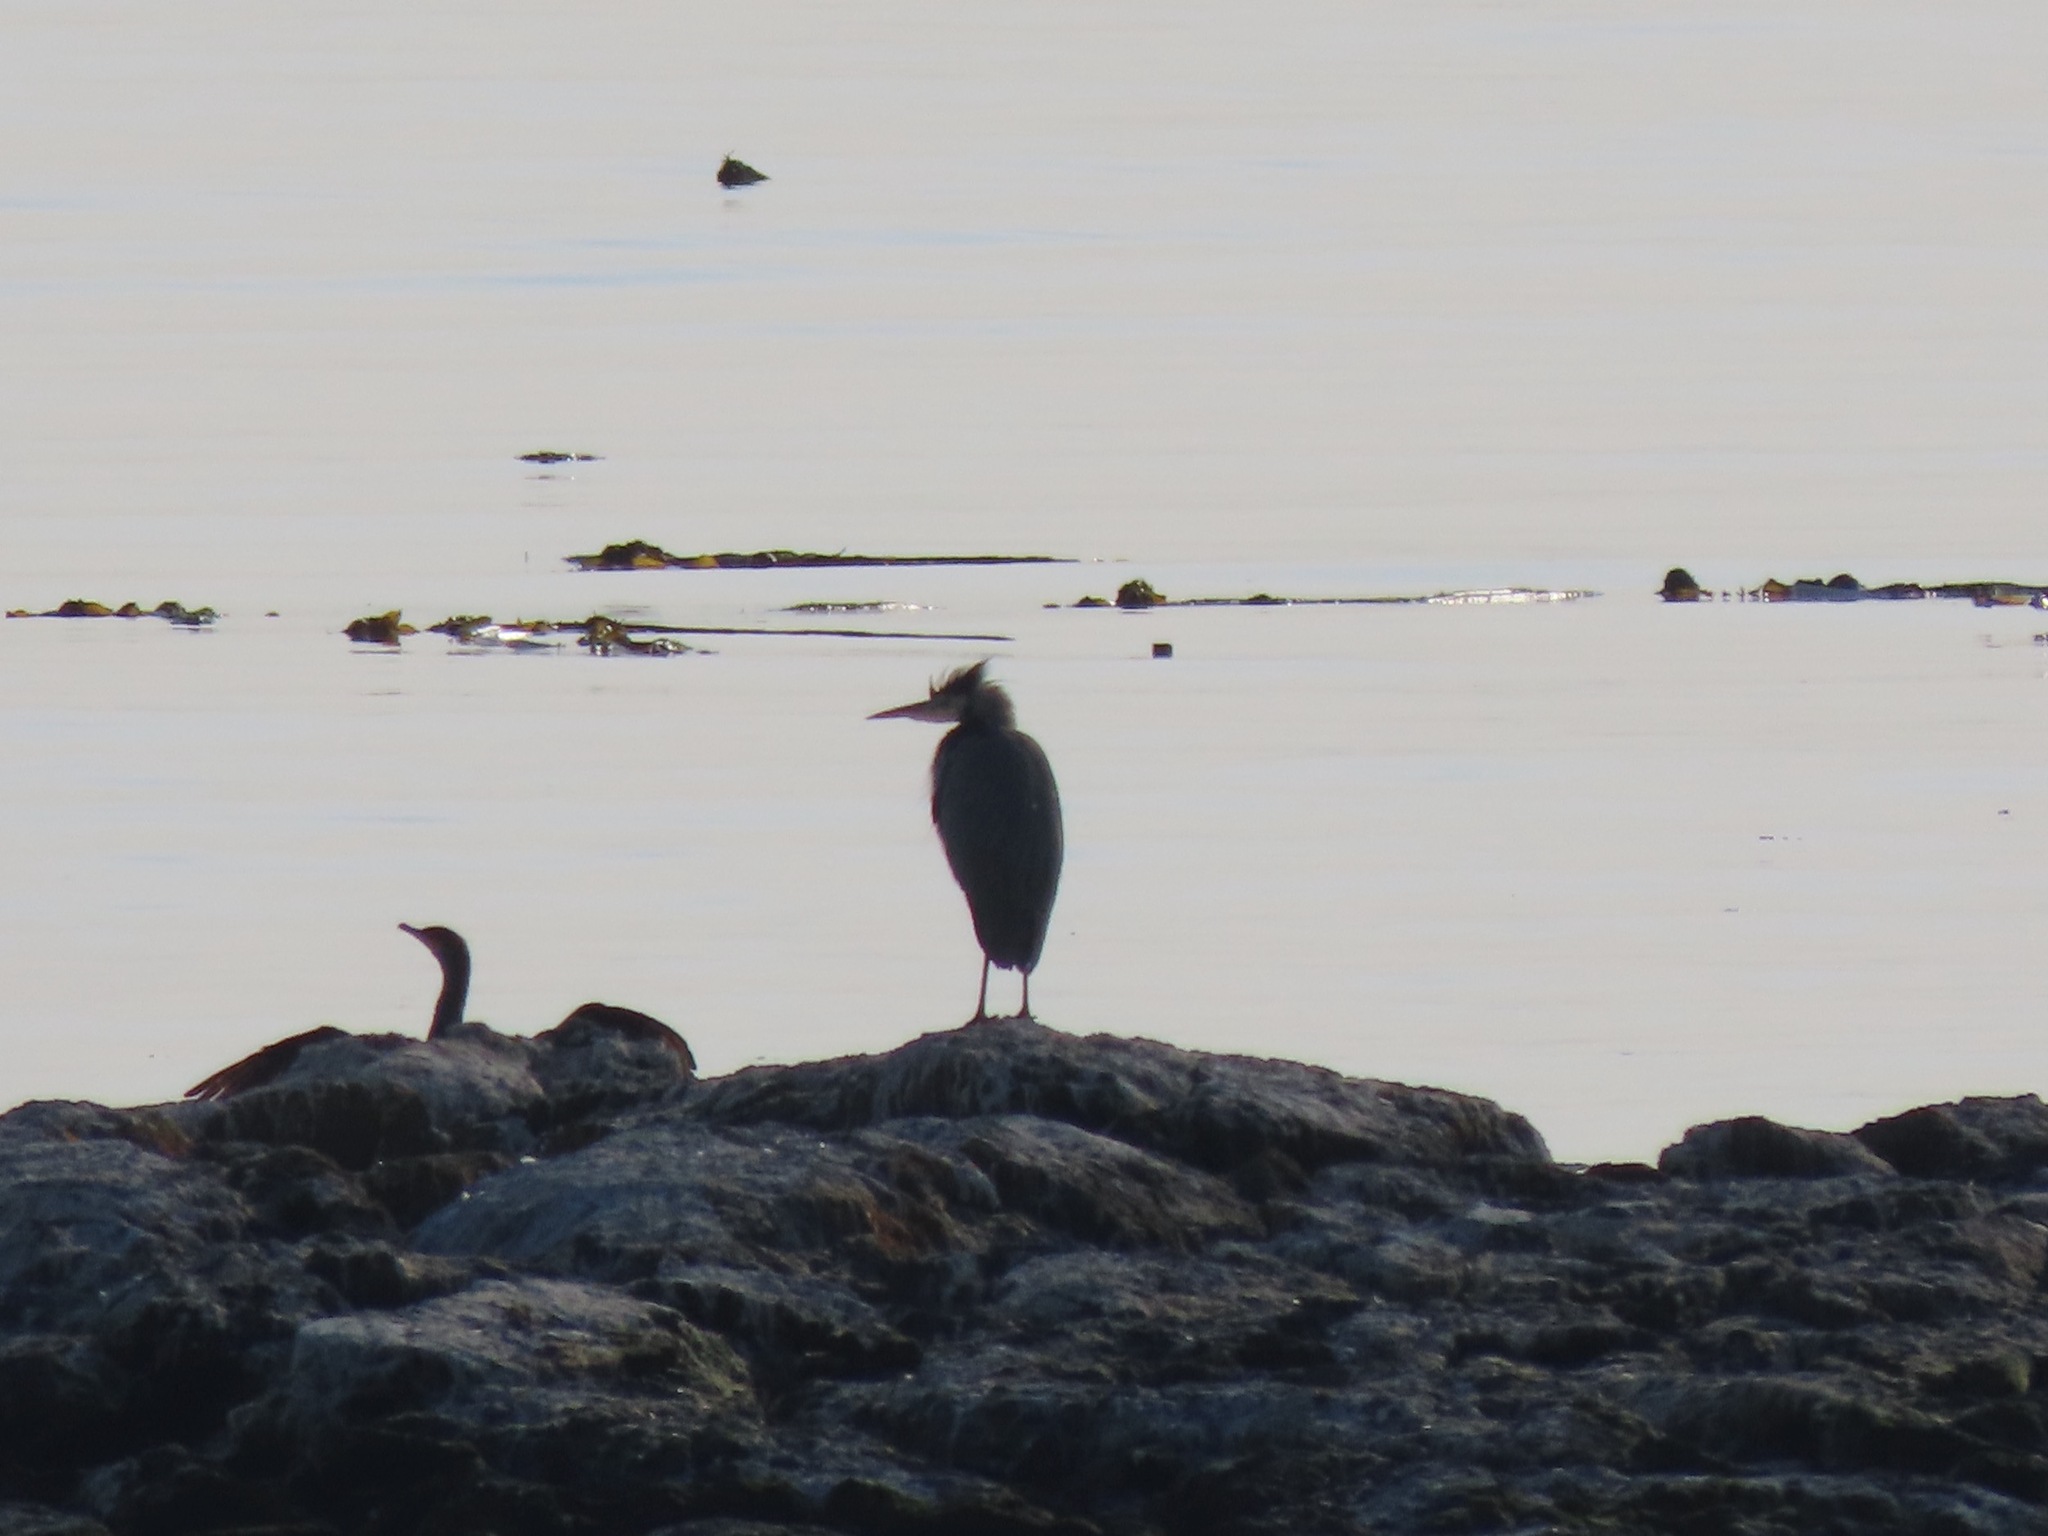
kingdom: Animalia
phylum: Chordata
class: Aves
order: Pelecaniformes
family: Ardeidae
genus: Ardea
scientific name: Ardea herodias
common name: Great blue heron
